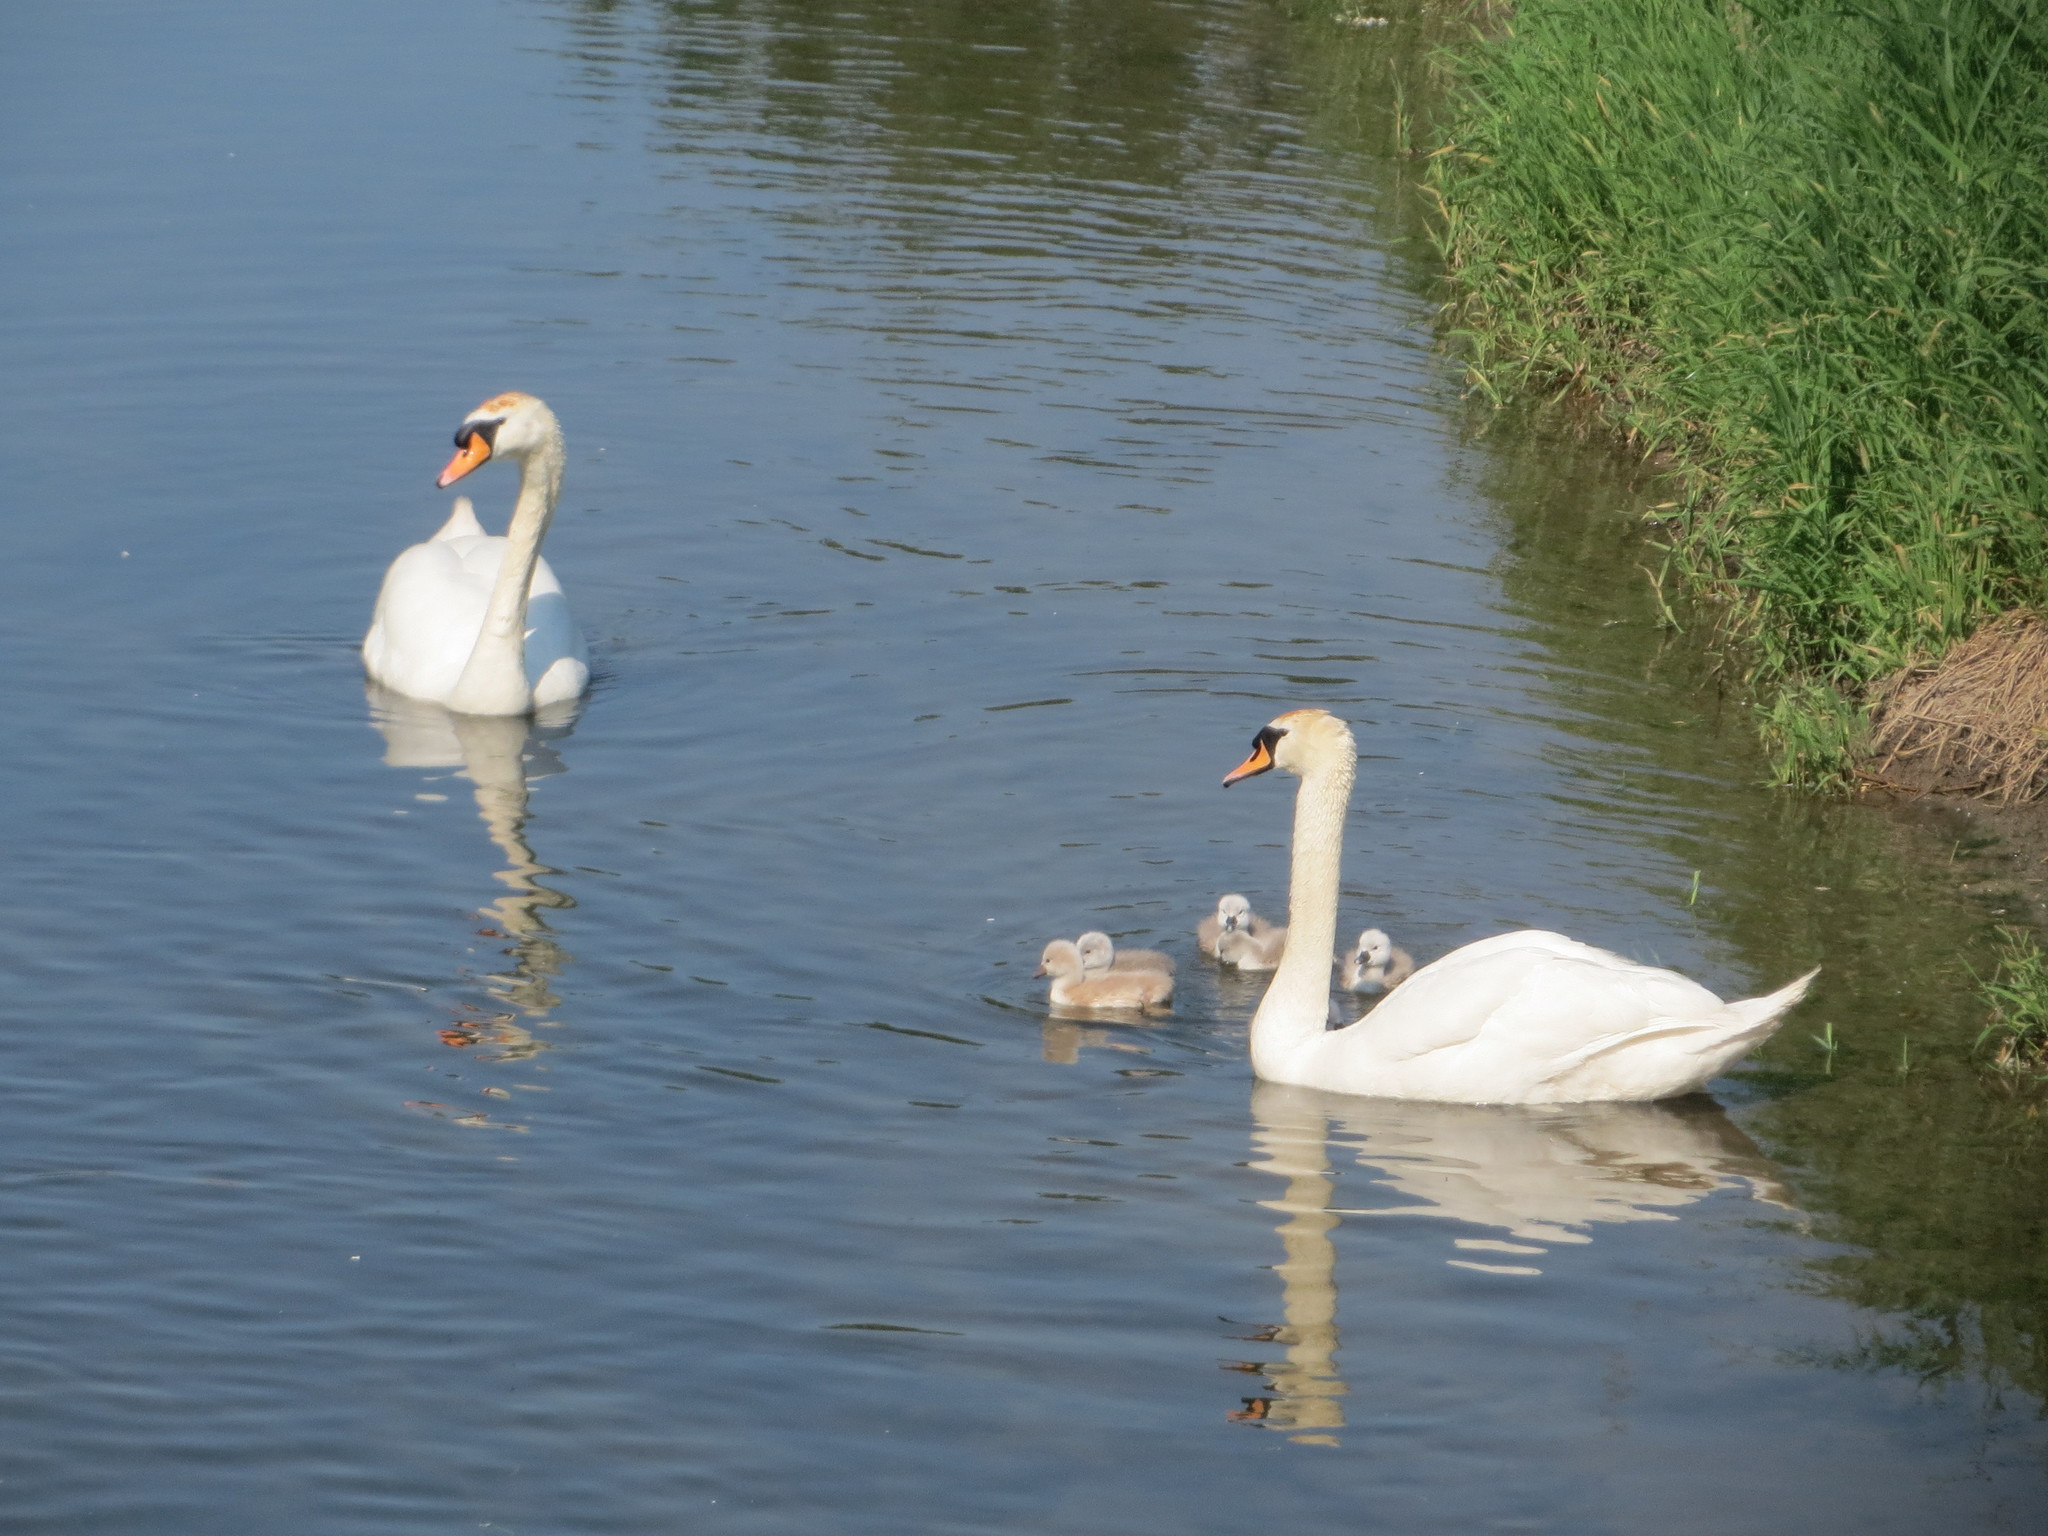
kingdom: Animalia
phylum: Chordata
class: Aves
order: Anseriformes
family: Anatidae
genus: Cygnus
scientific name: Cygnus olor
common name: Mute swan
